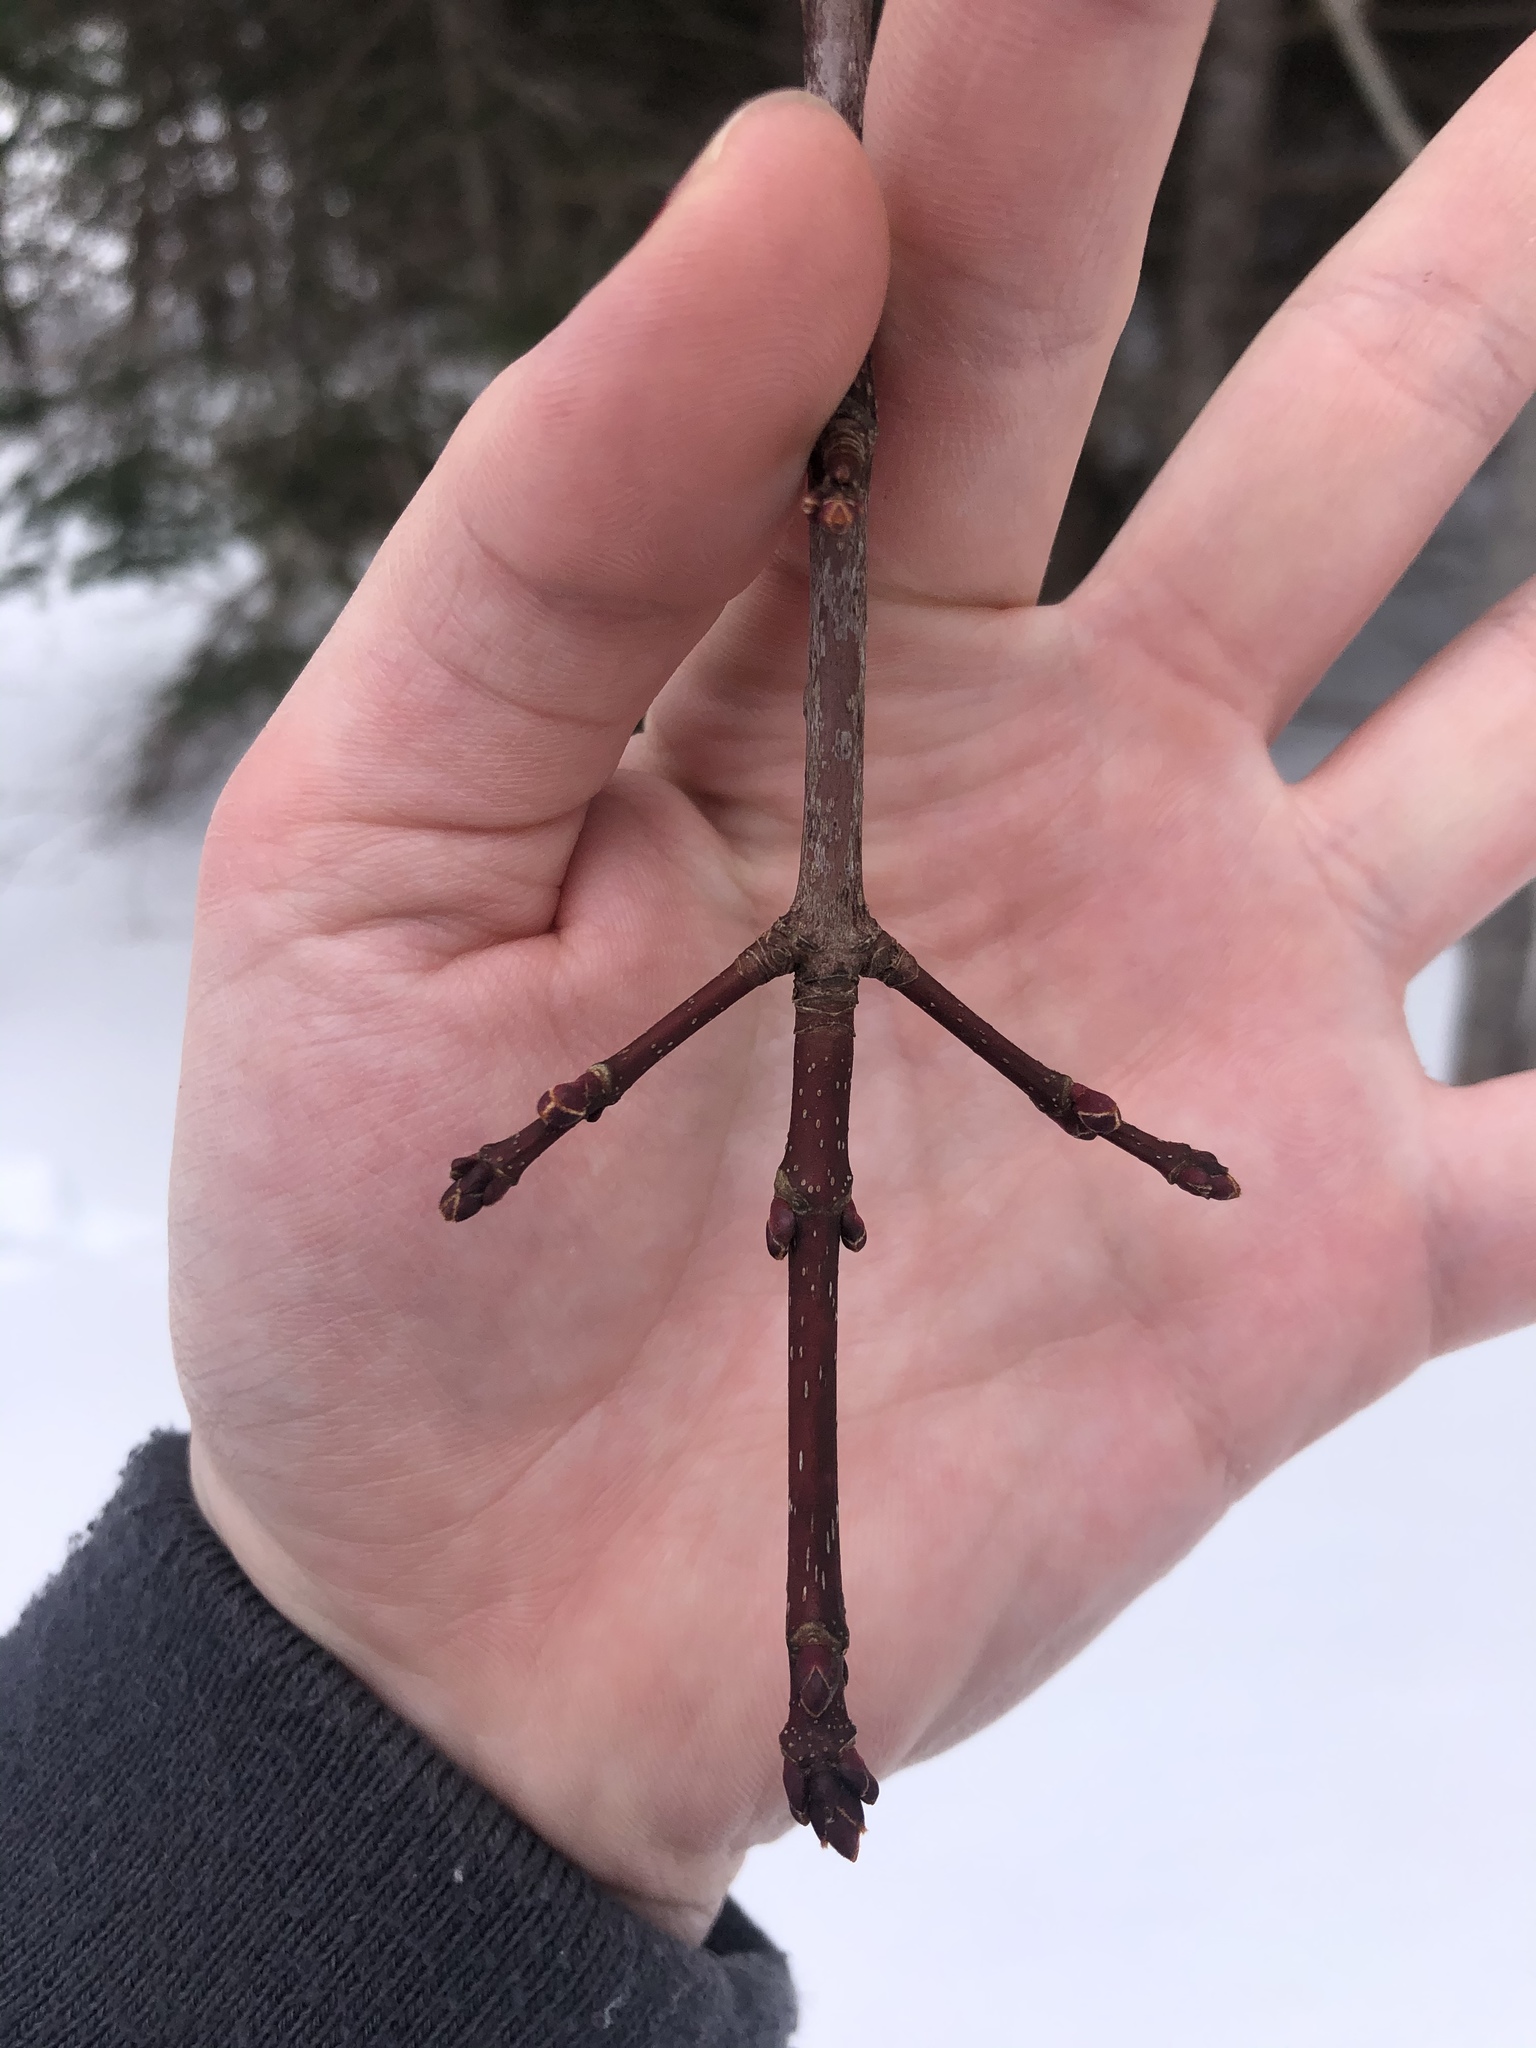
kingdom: Plantae
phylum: Tracheophyta
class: Magnoliopsida
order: Sapindales
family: Sapindaceae
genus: Acer
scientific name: Acer rubrum
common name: Red maple
